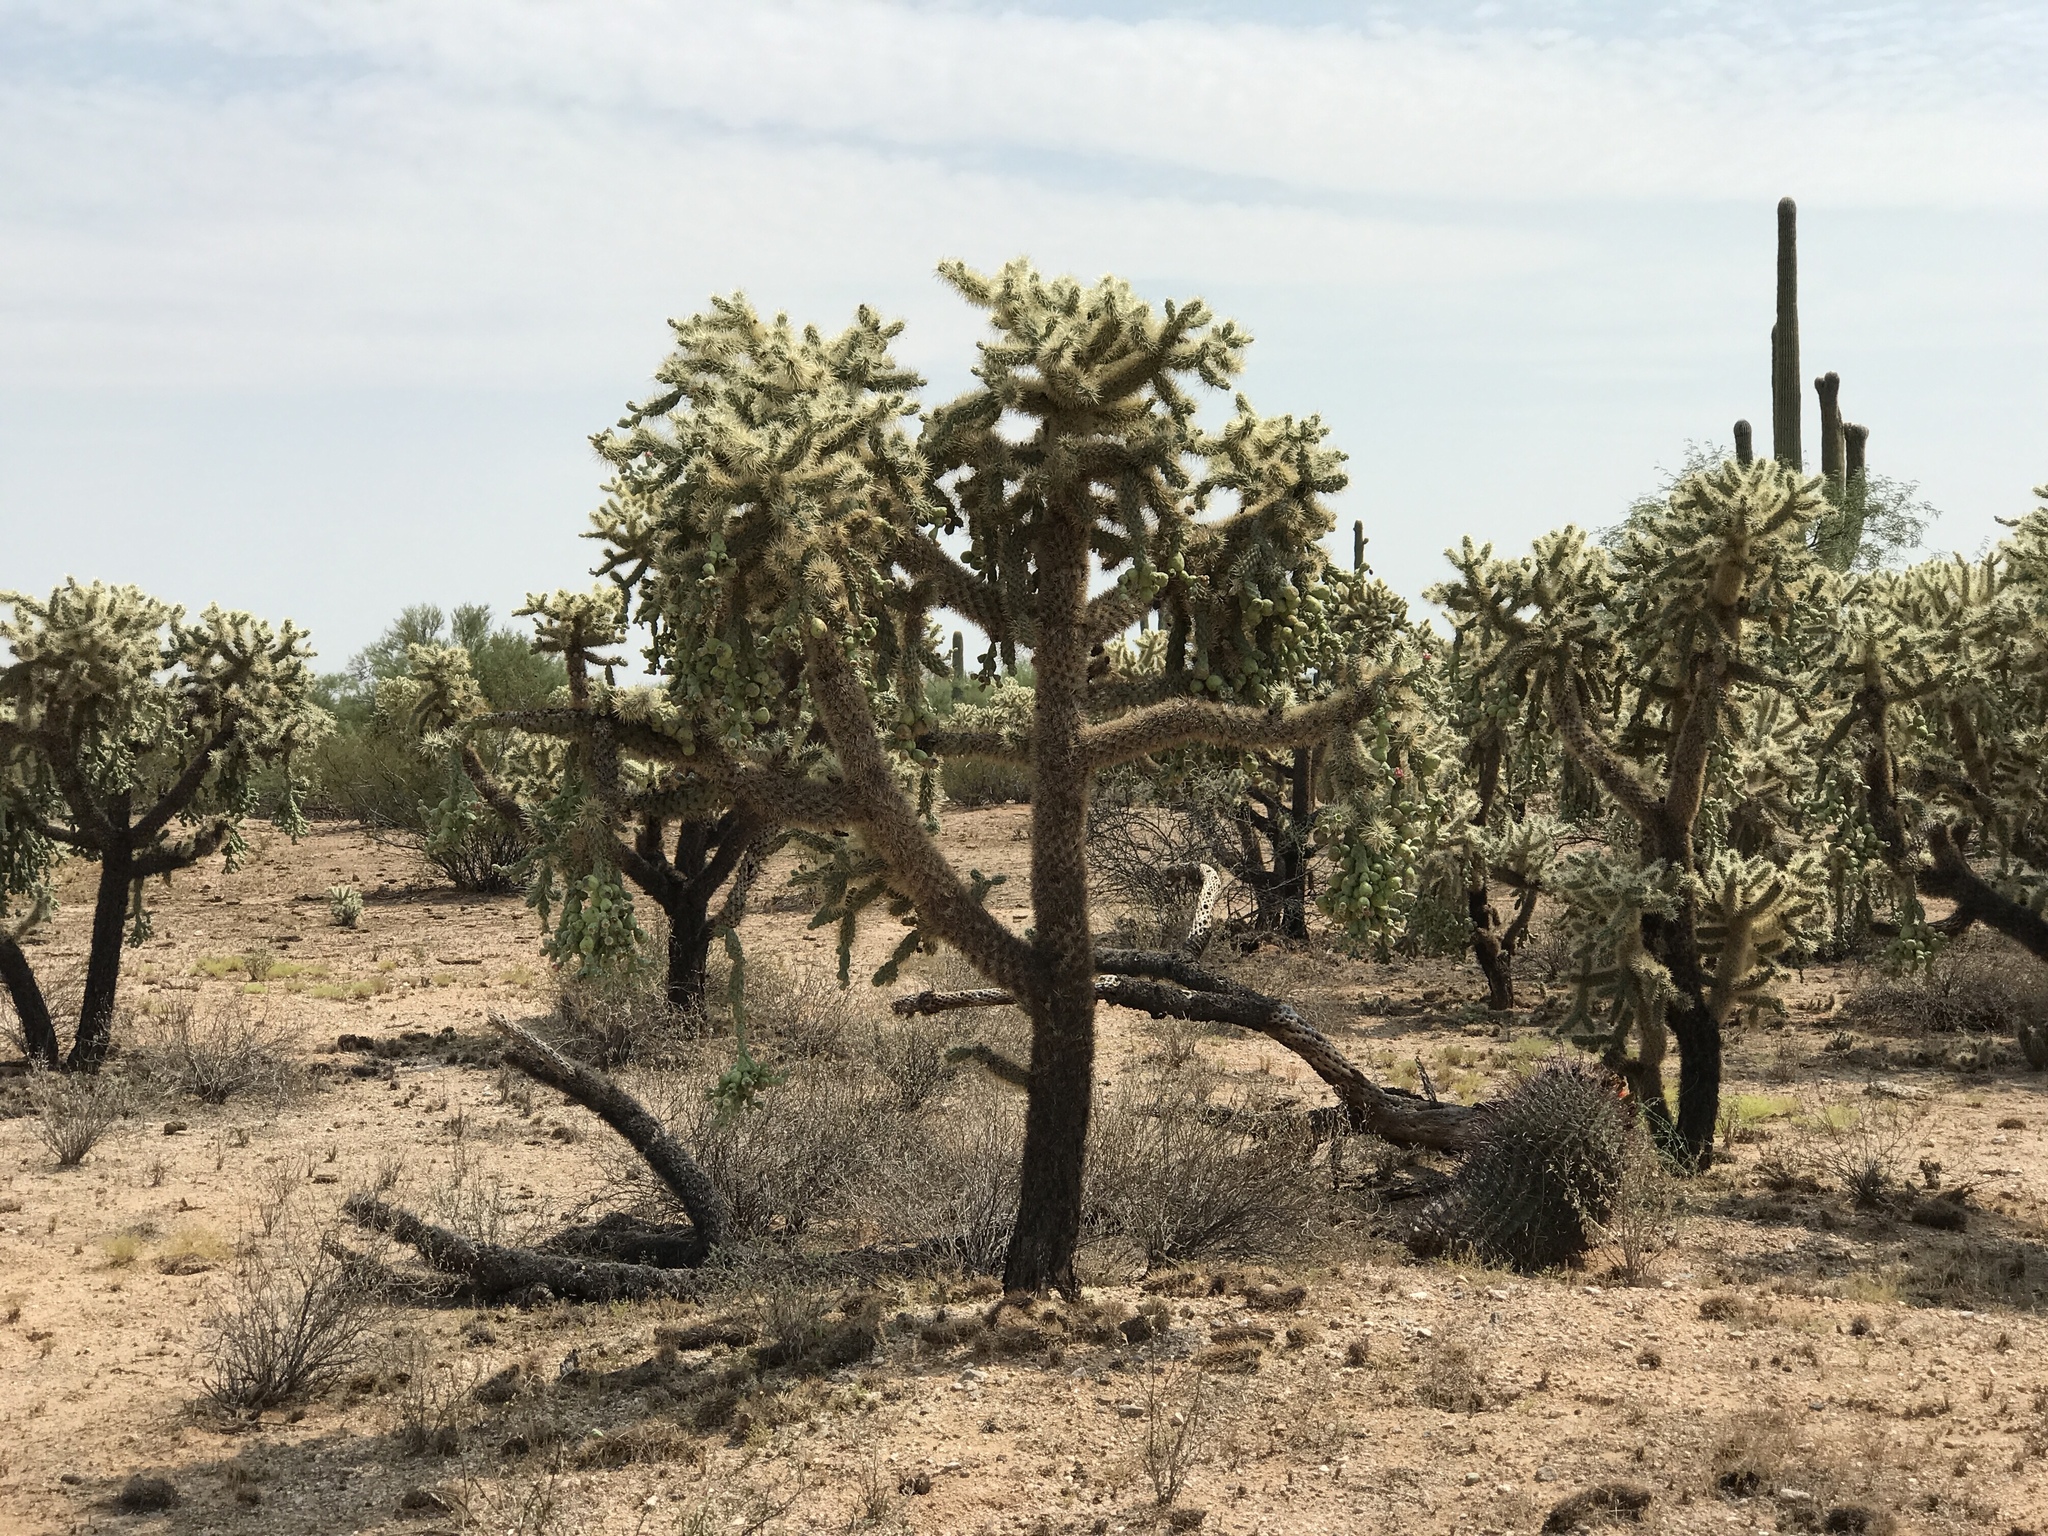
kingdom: Plantae
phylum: Tracheophyta
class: Magnoliopsida
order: Caryophyllales
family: Cactaceae
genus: Cylindropuntia
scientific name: Cylindropuntia fulgida
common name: Jumping cholla
